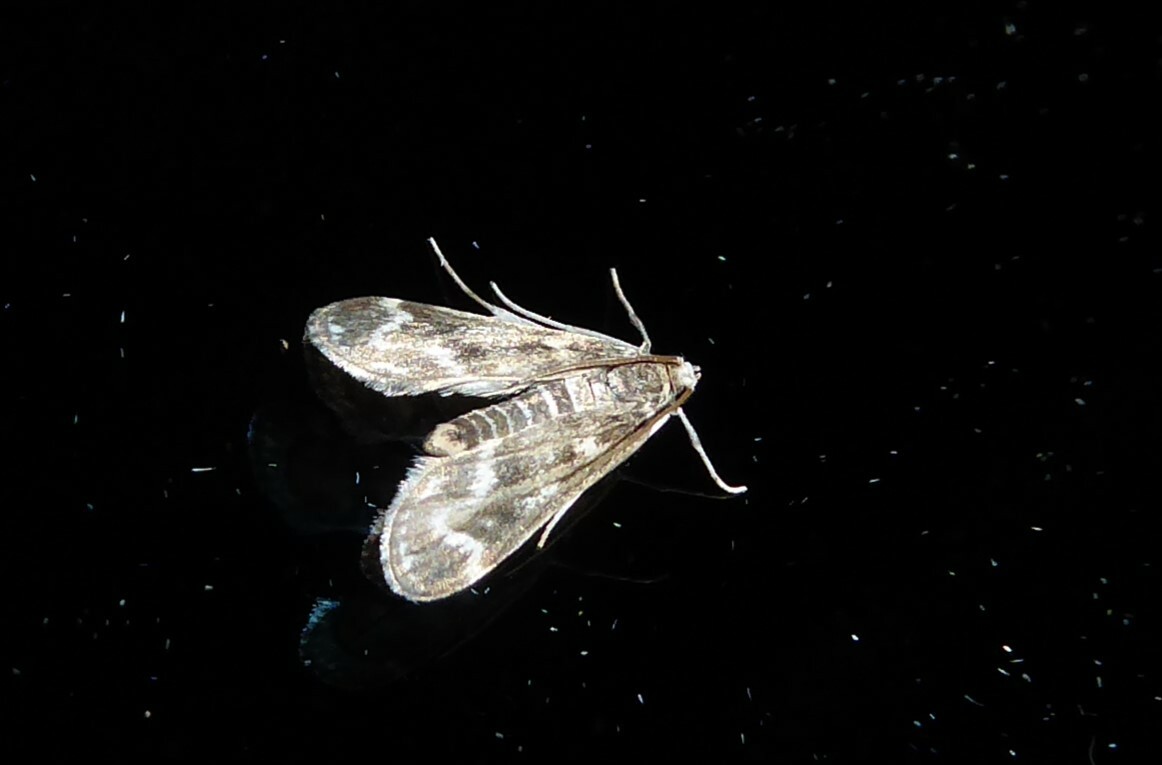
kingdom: Animalia
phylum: Arthropoda
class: Insecta
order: Lepidoptera
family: Crambidae
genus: Hygraula
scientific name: Hygraula nitens
